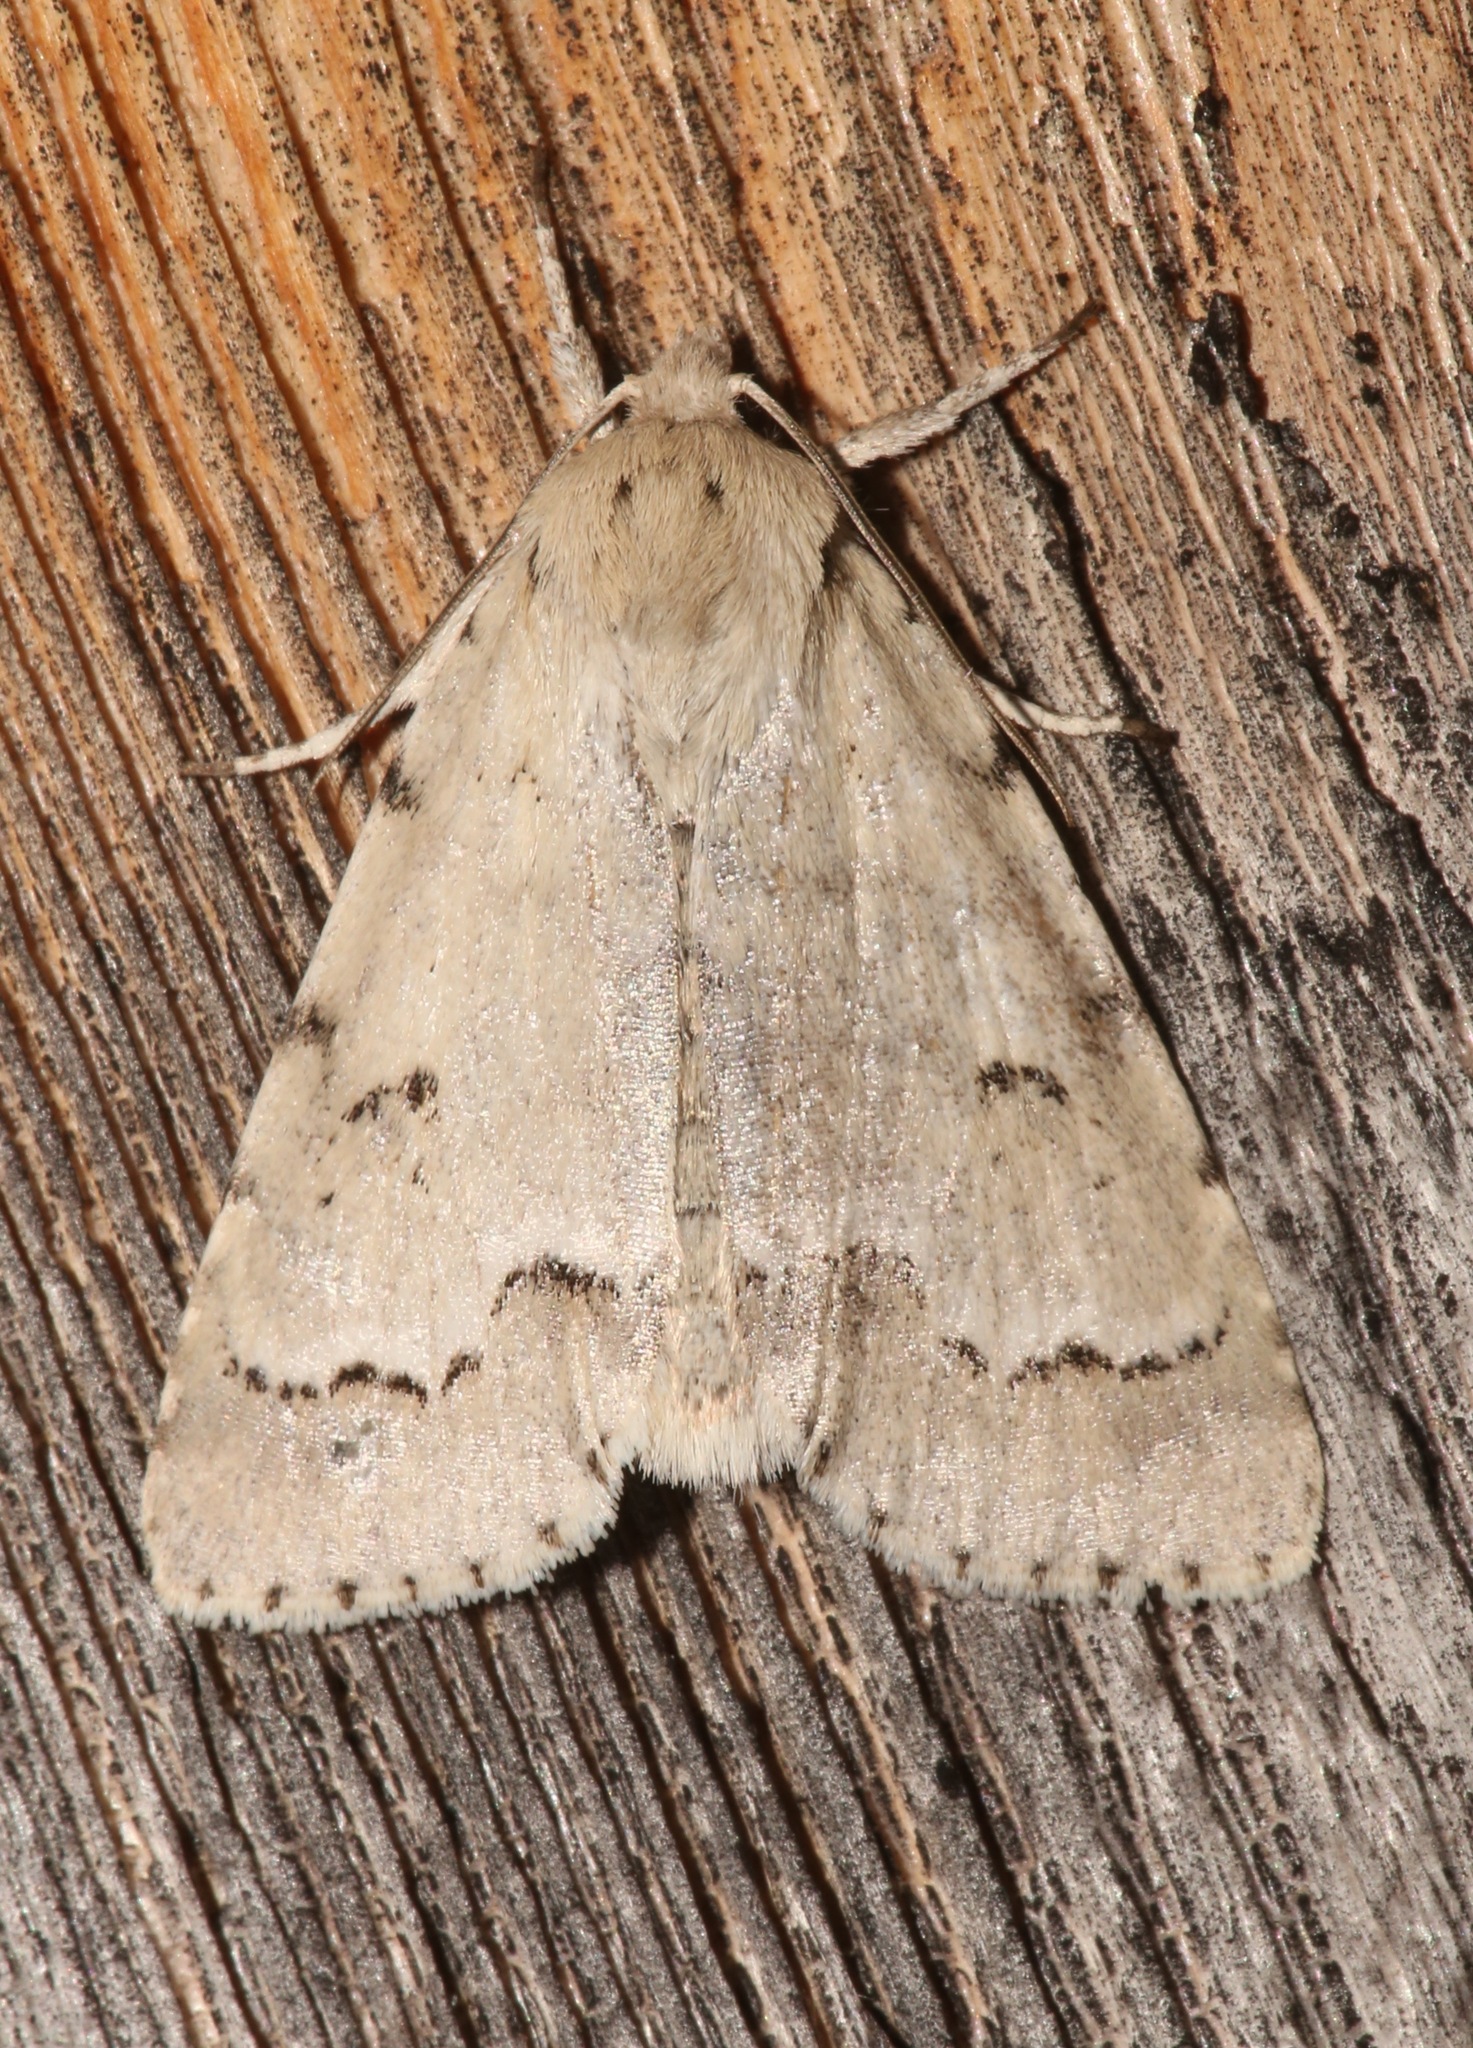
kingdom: Animalia
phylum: Arthropoda
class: Insecta
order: Lepidoptera
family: Noctuidae
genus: Acronicta
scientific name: Acronicta innotata
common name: Unmarked dagger
